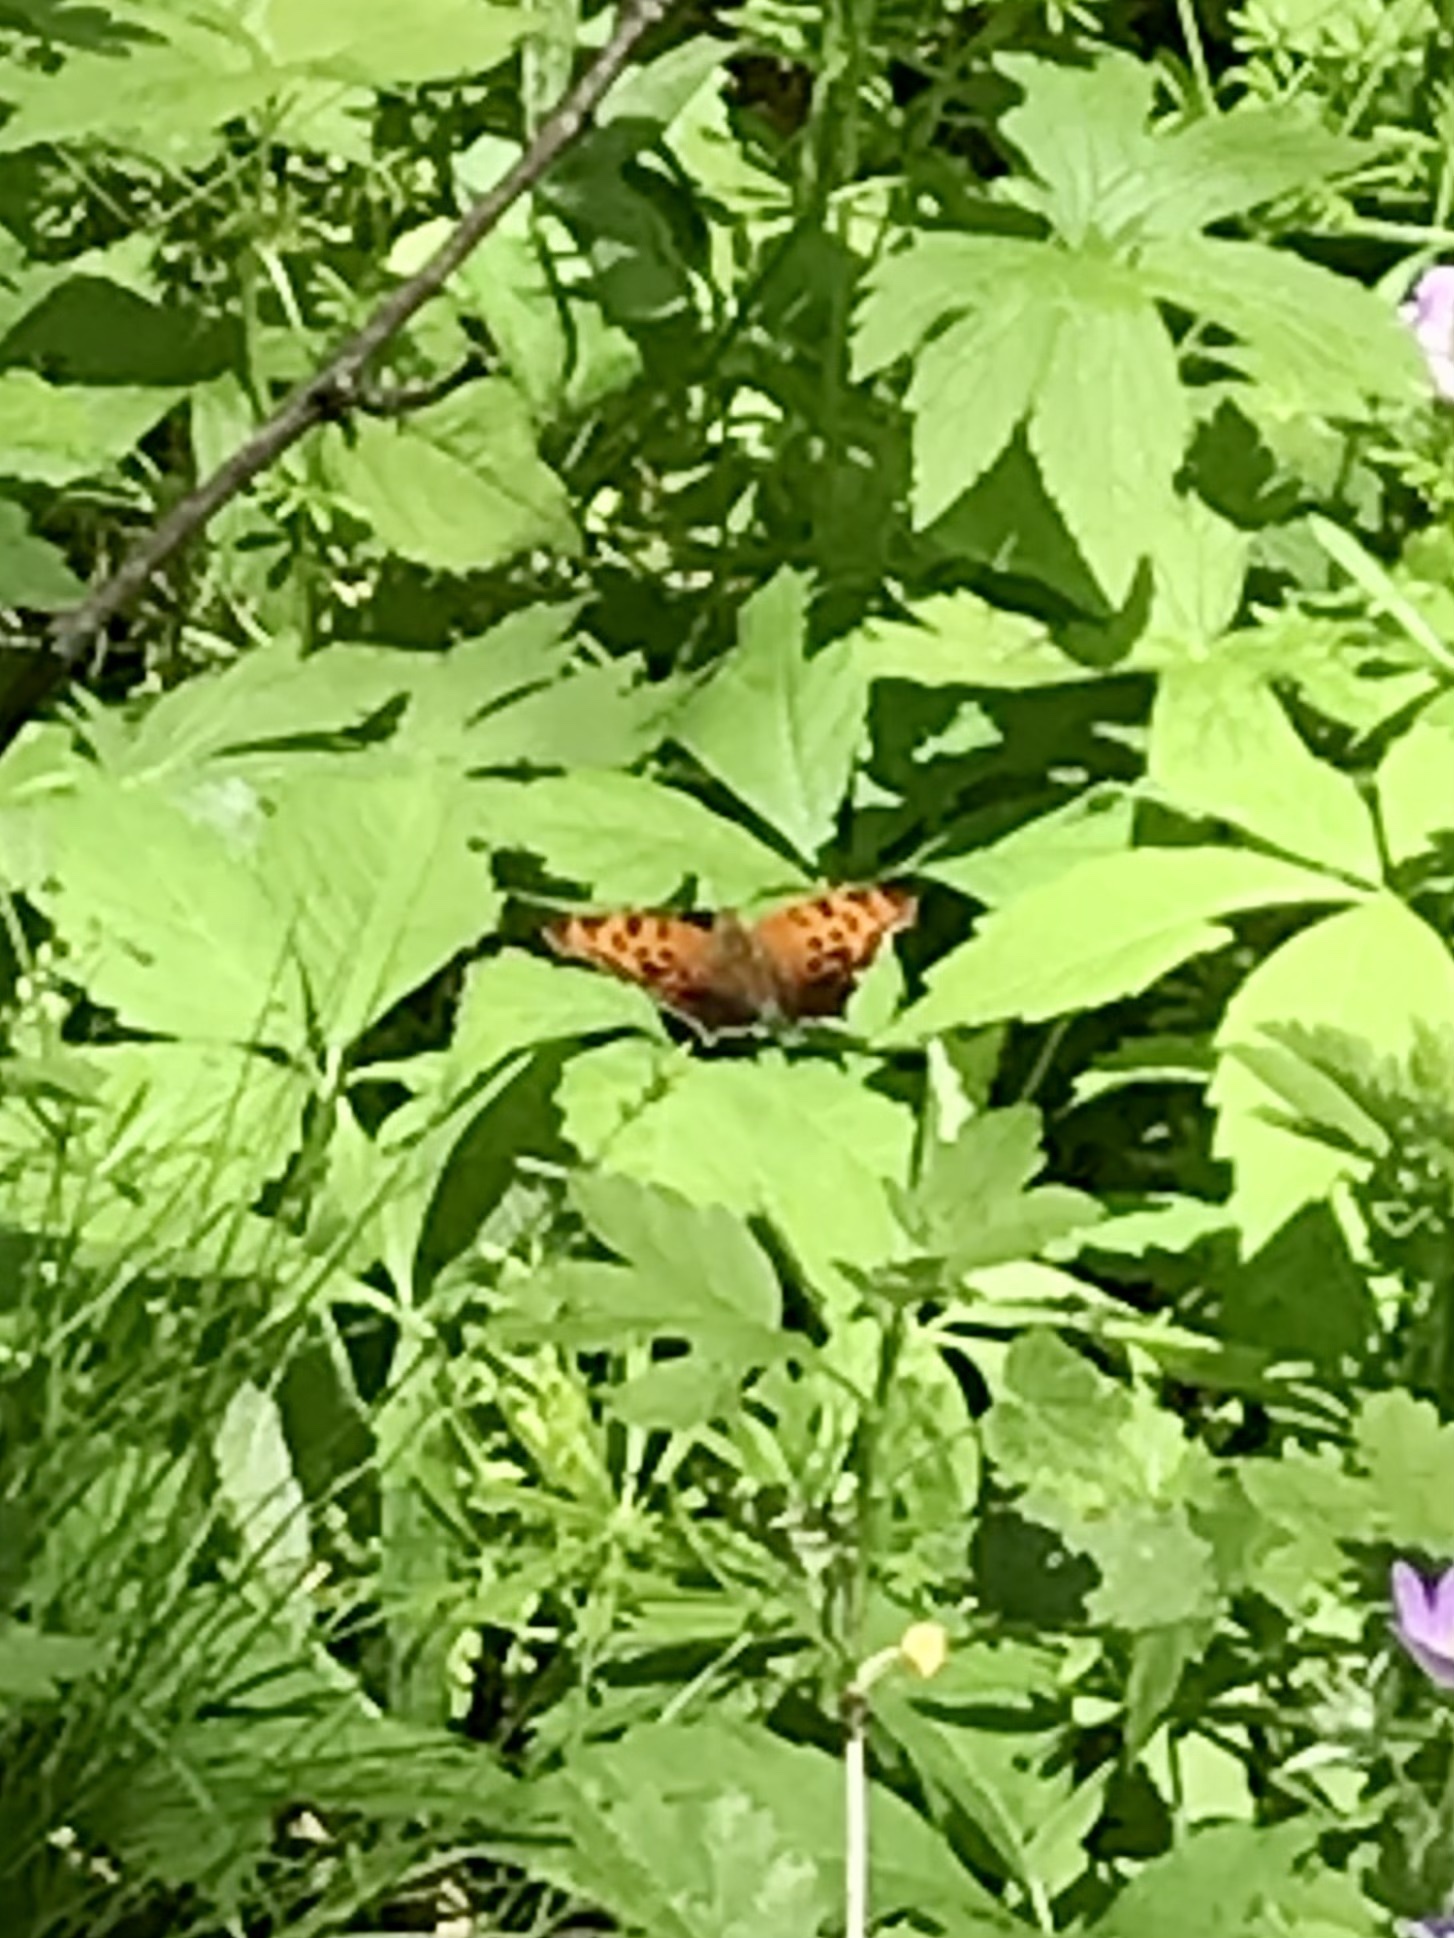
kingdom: Animalia
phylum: Arthropoda
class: Insecta
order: Lepidoptera
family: Nymphalidae
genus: Polygonia
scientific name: Polygonia interrogationis
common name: Question mark
